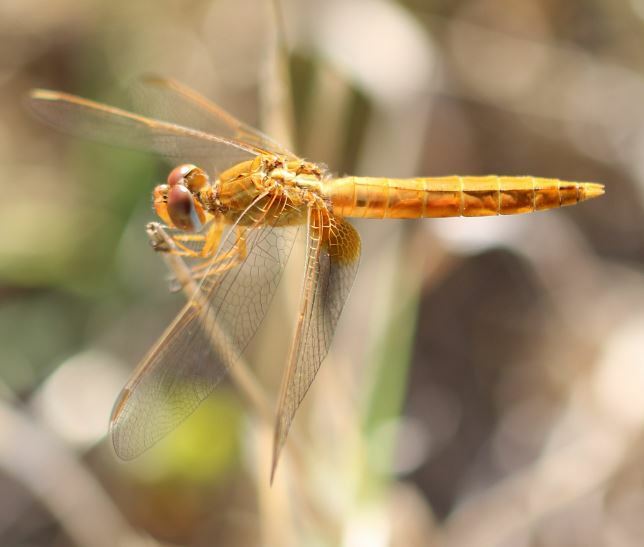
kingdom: Animalia
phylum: Arthropoda
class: Insecta
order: Odonata
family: Libellulidae
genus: Crocothemis
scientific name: Crocothemis erythraea
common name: Scarlet dragonfly
